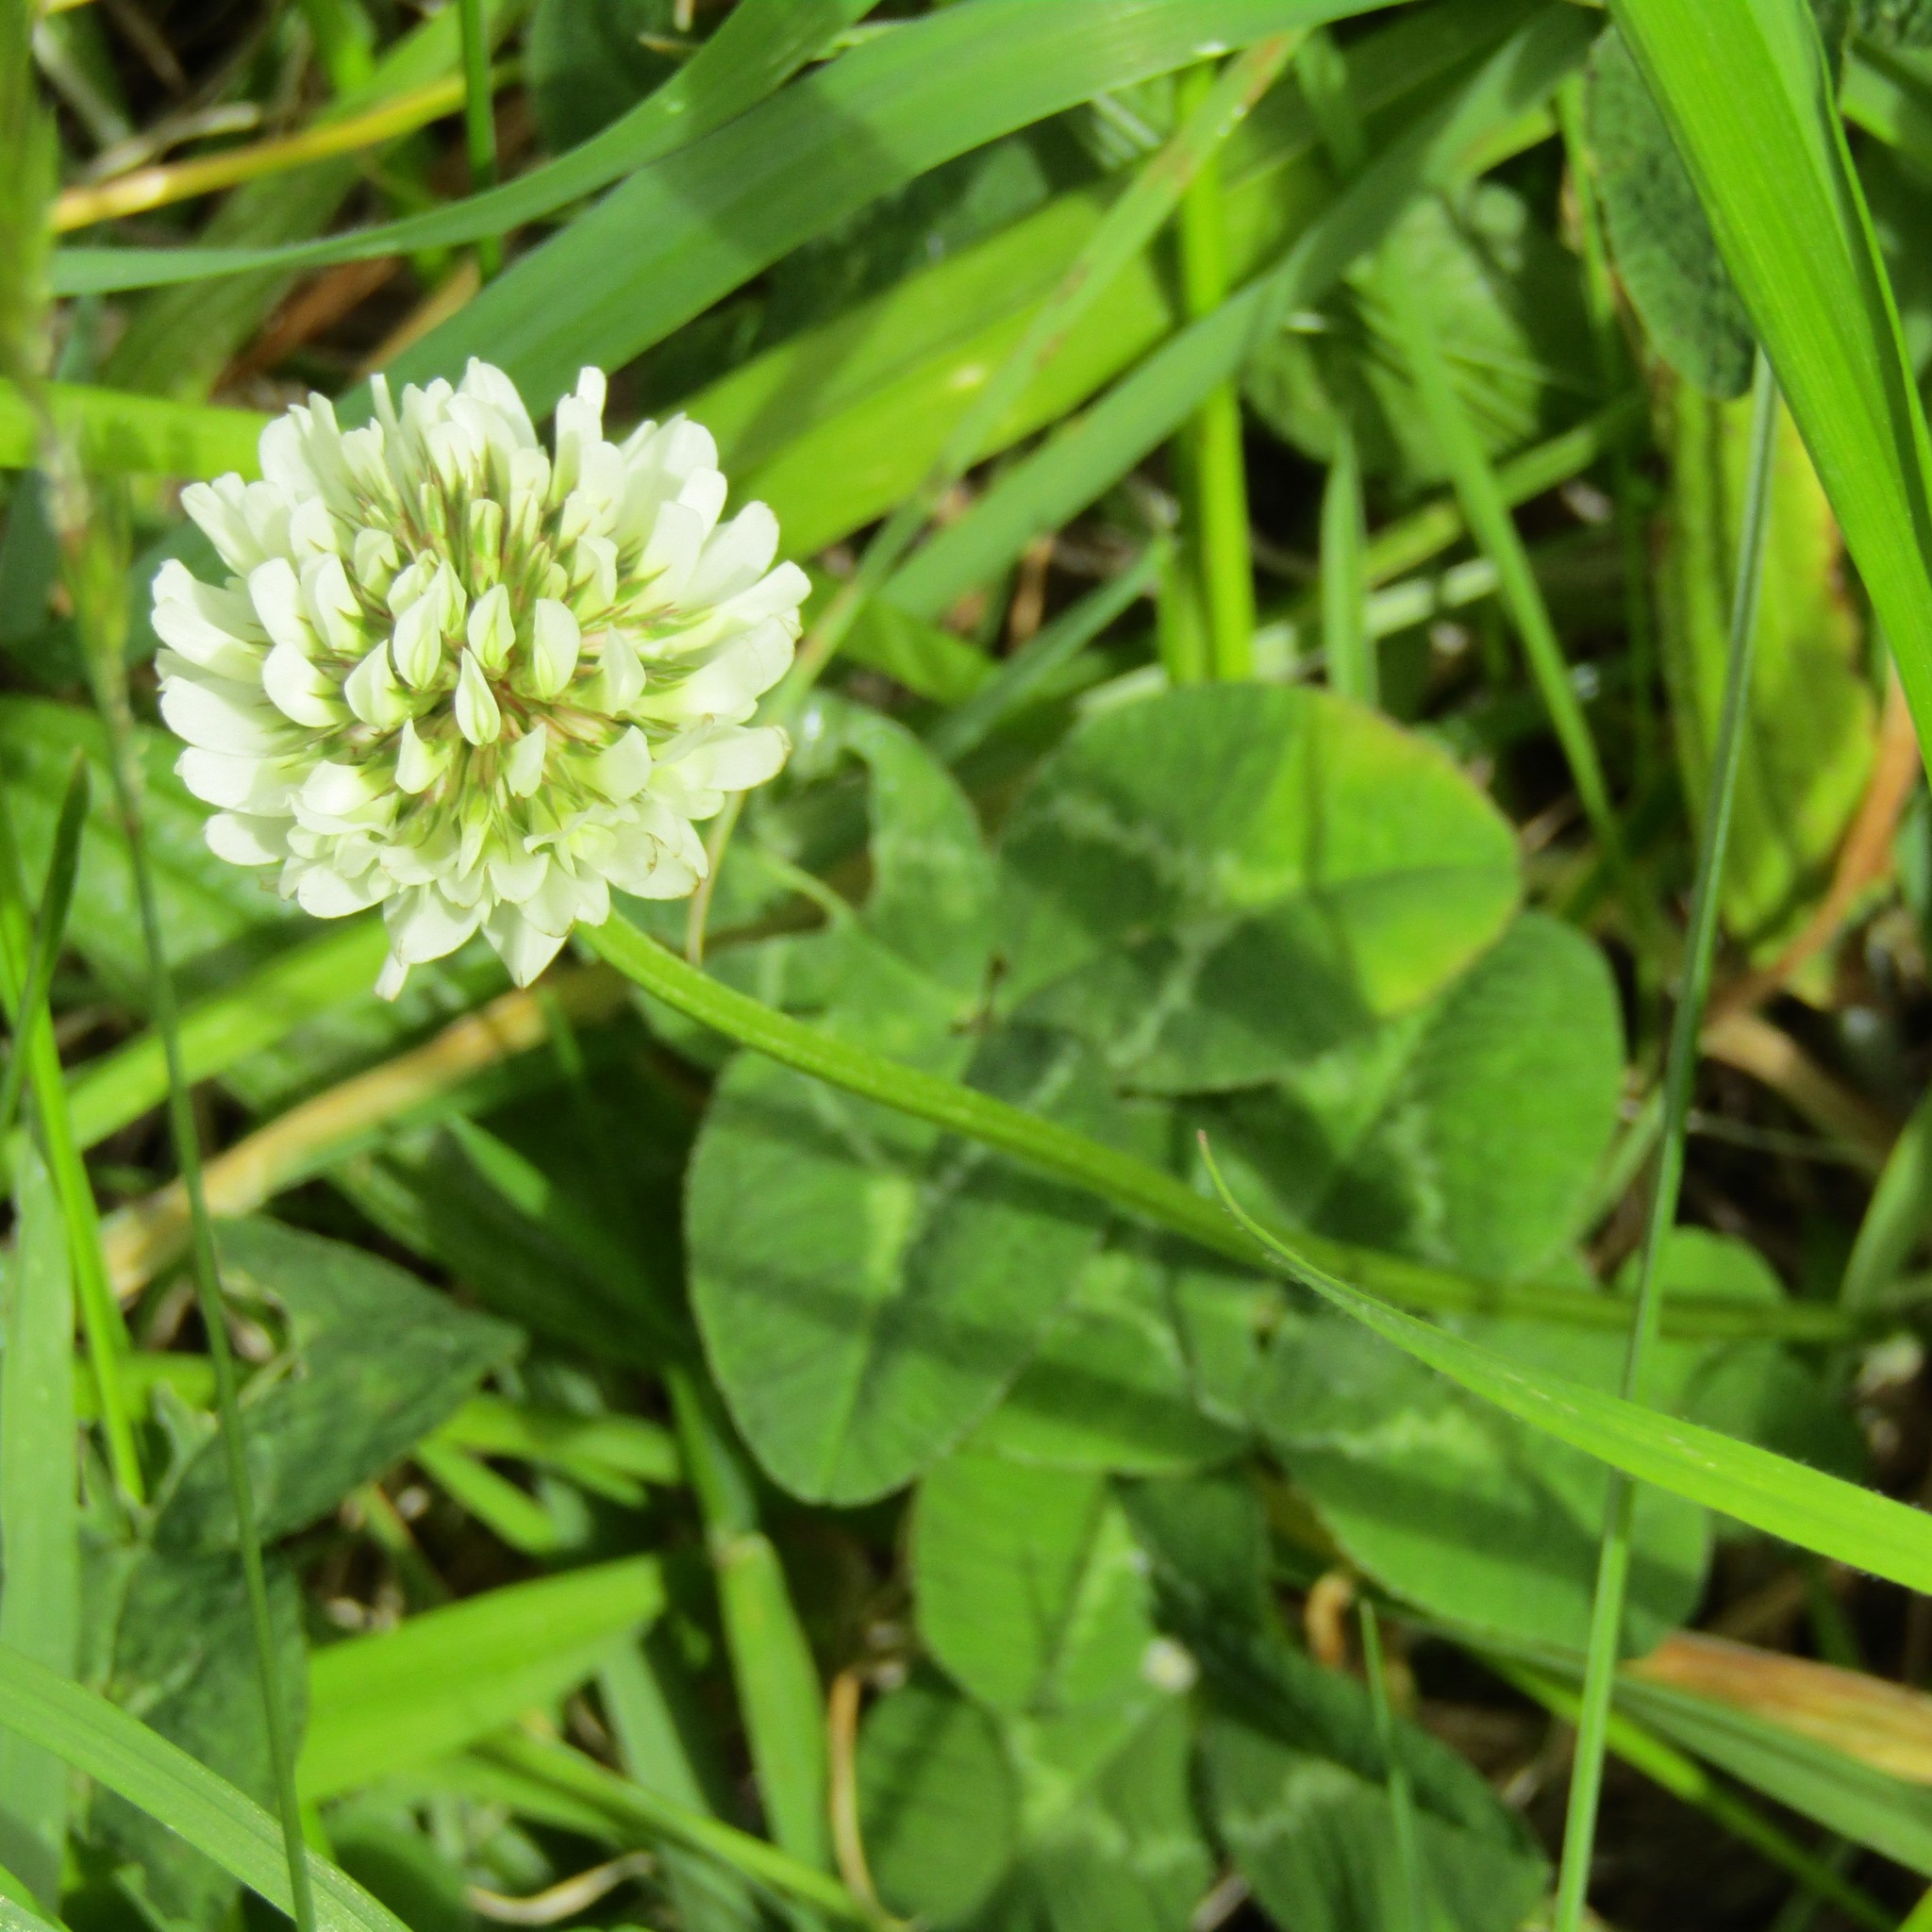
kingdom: Plantae
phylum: Tracheophyta
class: Magnoliopsida
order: Fabales
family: Fabaceae
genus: Trifolium
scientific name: Trifolium repens
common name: White clover
